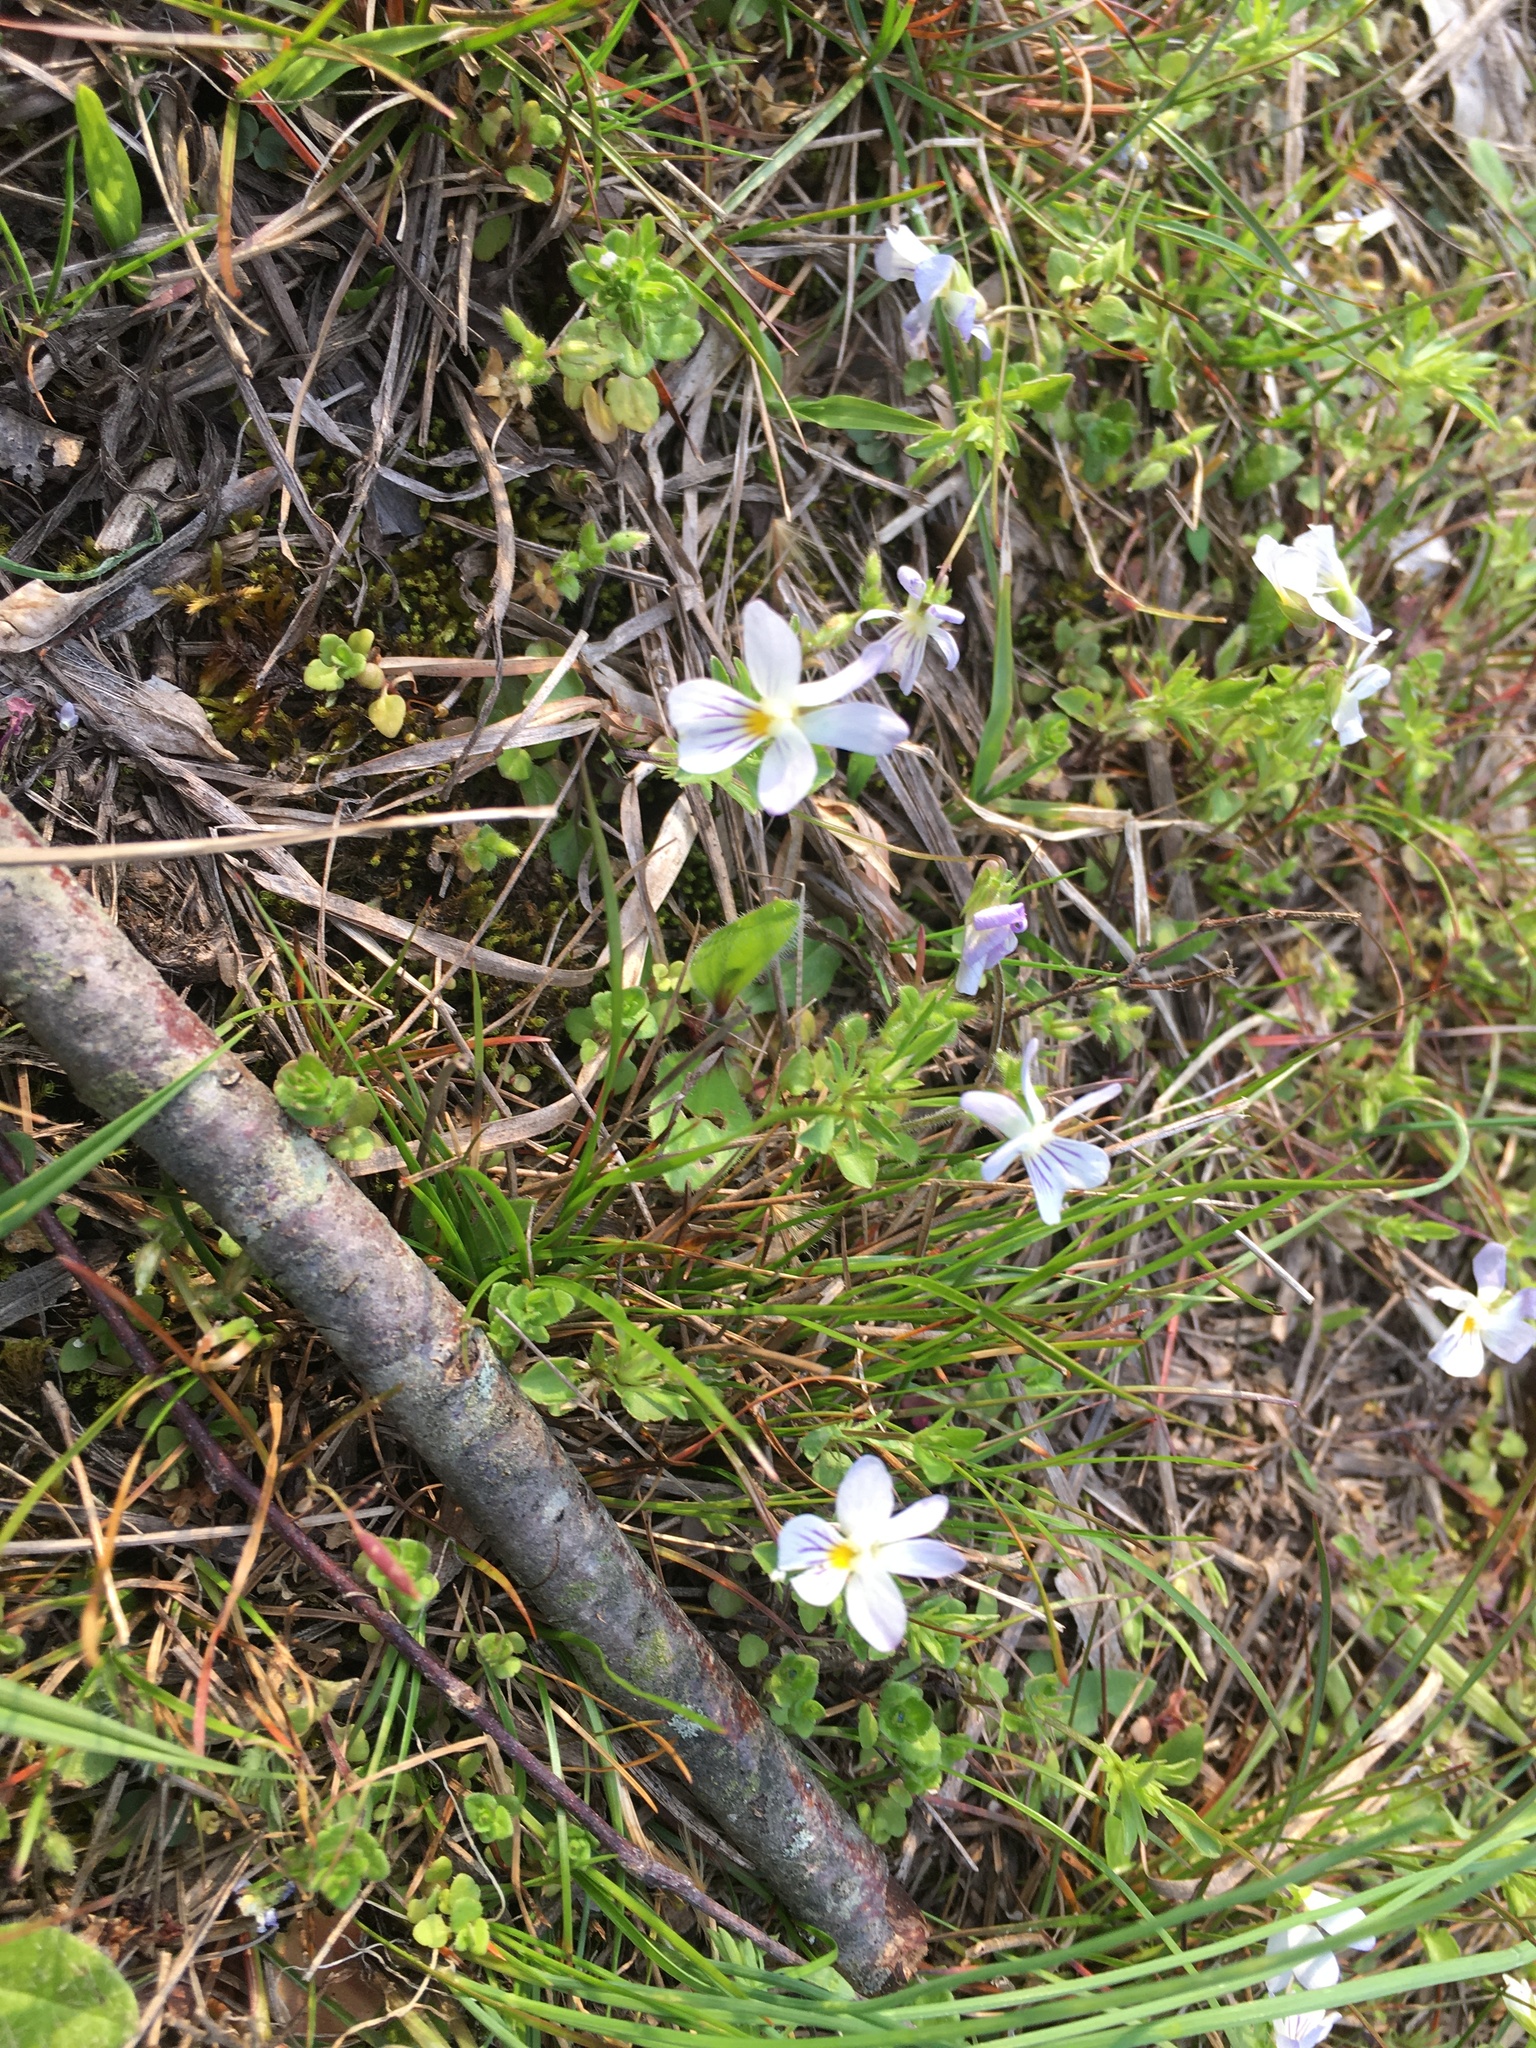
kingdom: Plantae
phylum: Tracheophyta
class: Magnoliopsida
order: Malpighiales
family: Violaceae
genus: Viola
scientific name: Viola rafinesquei
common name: American field pansy
